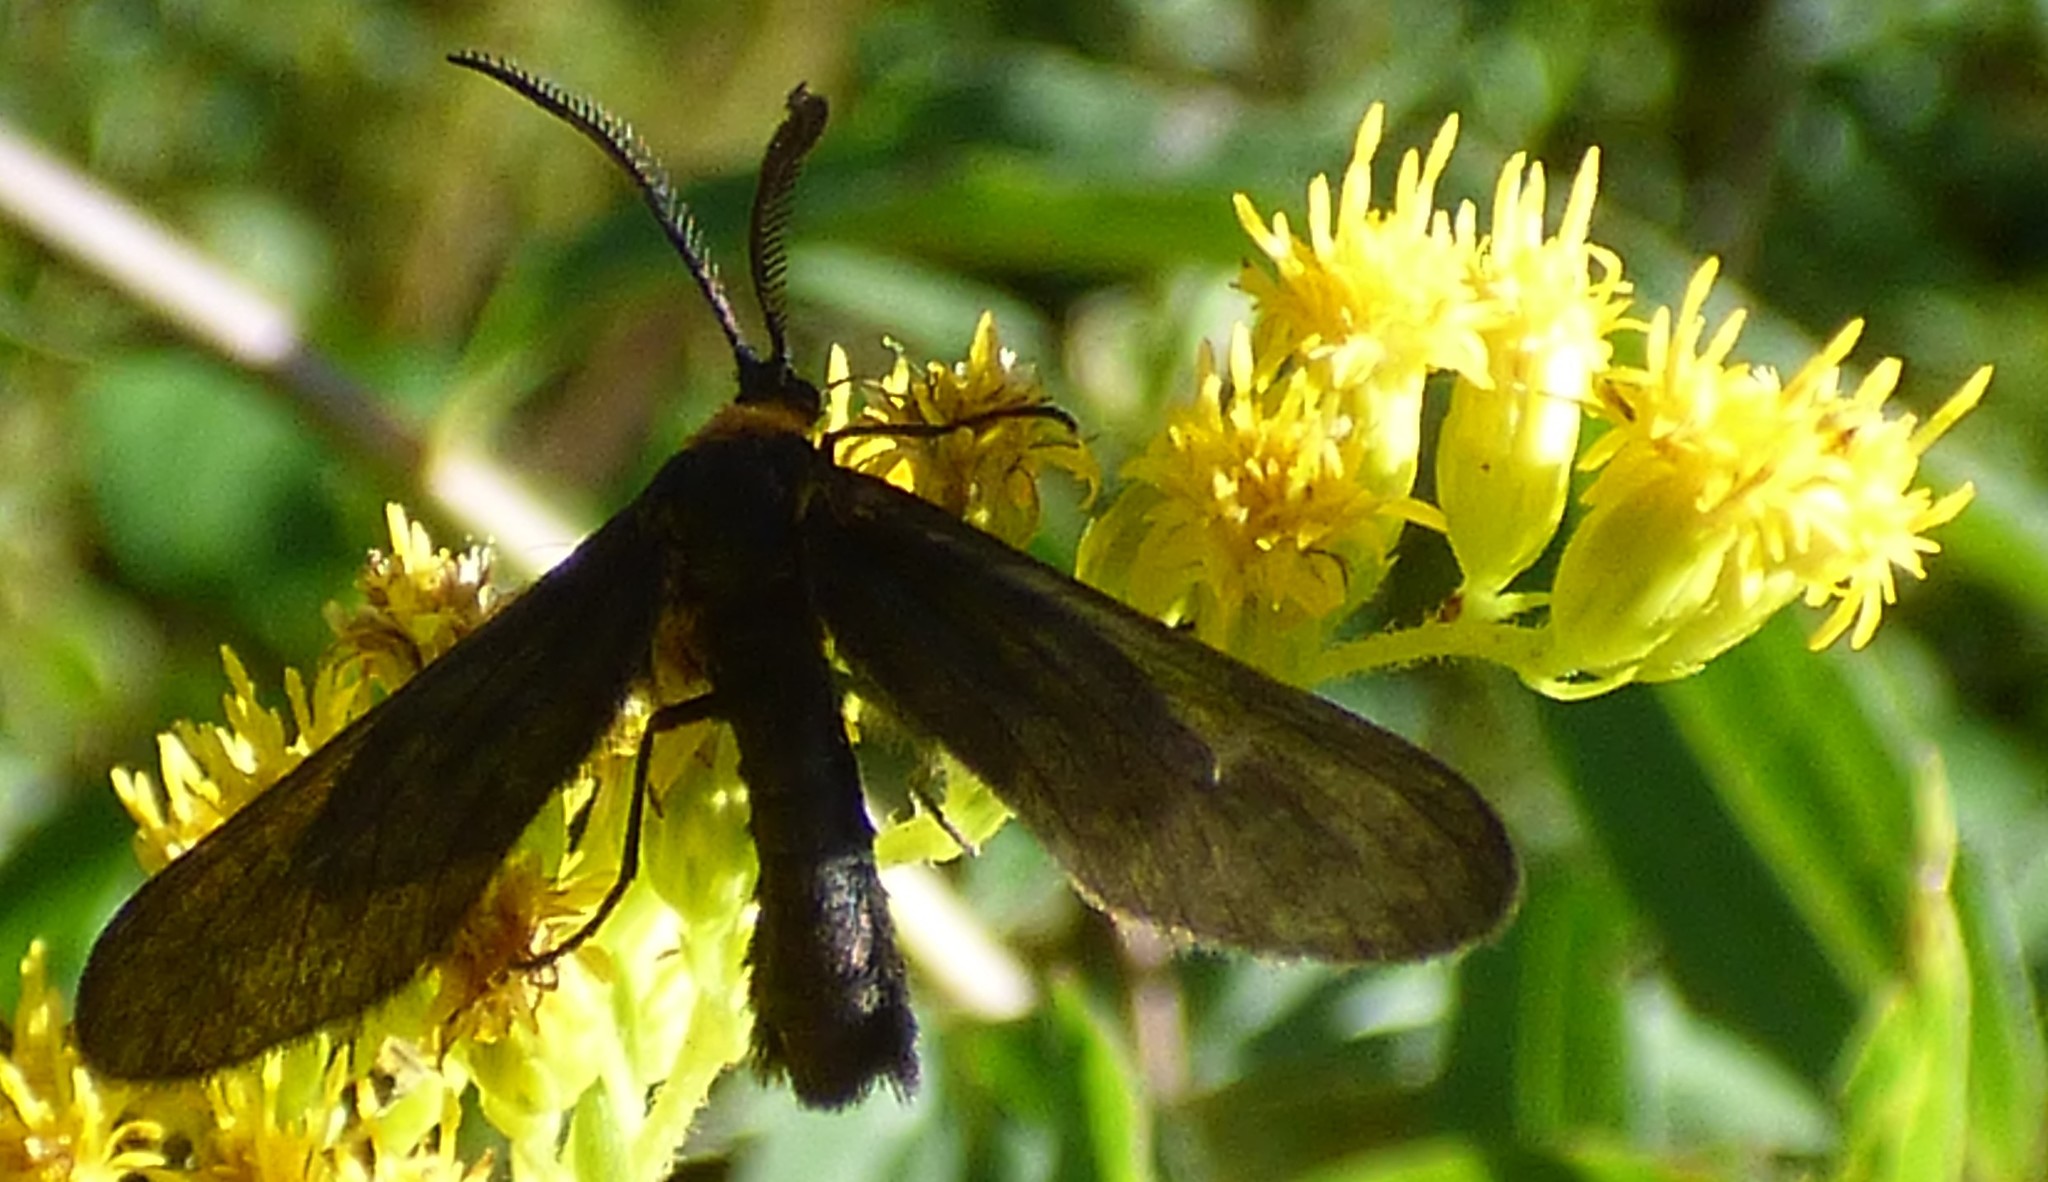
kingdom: Animalia
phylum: Arthropoda
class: Insecta
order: Lepidoptera
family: Zygaenidae
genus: Harrisina
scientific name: Harrisina americana
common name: Grapeleaf skeletonizer moth
